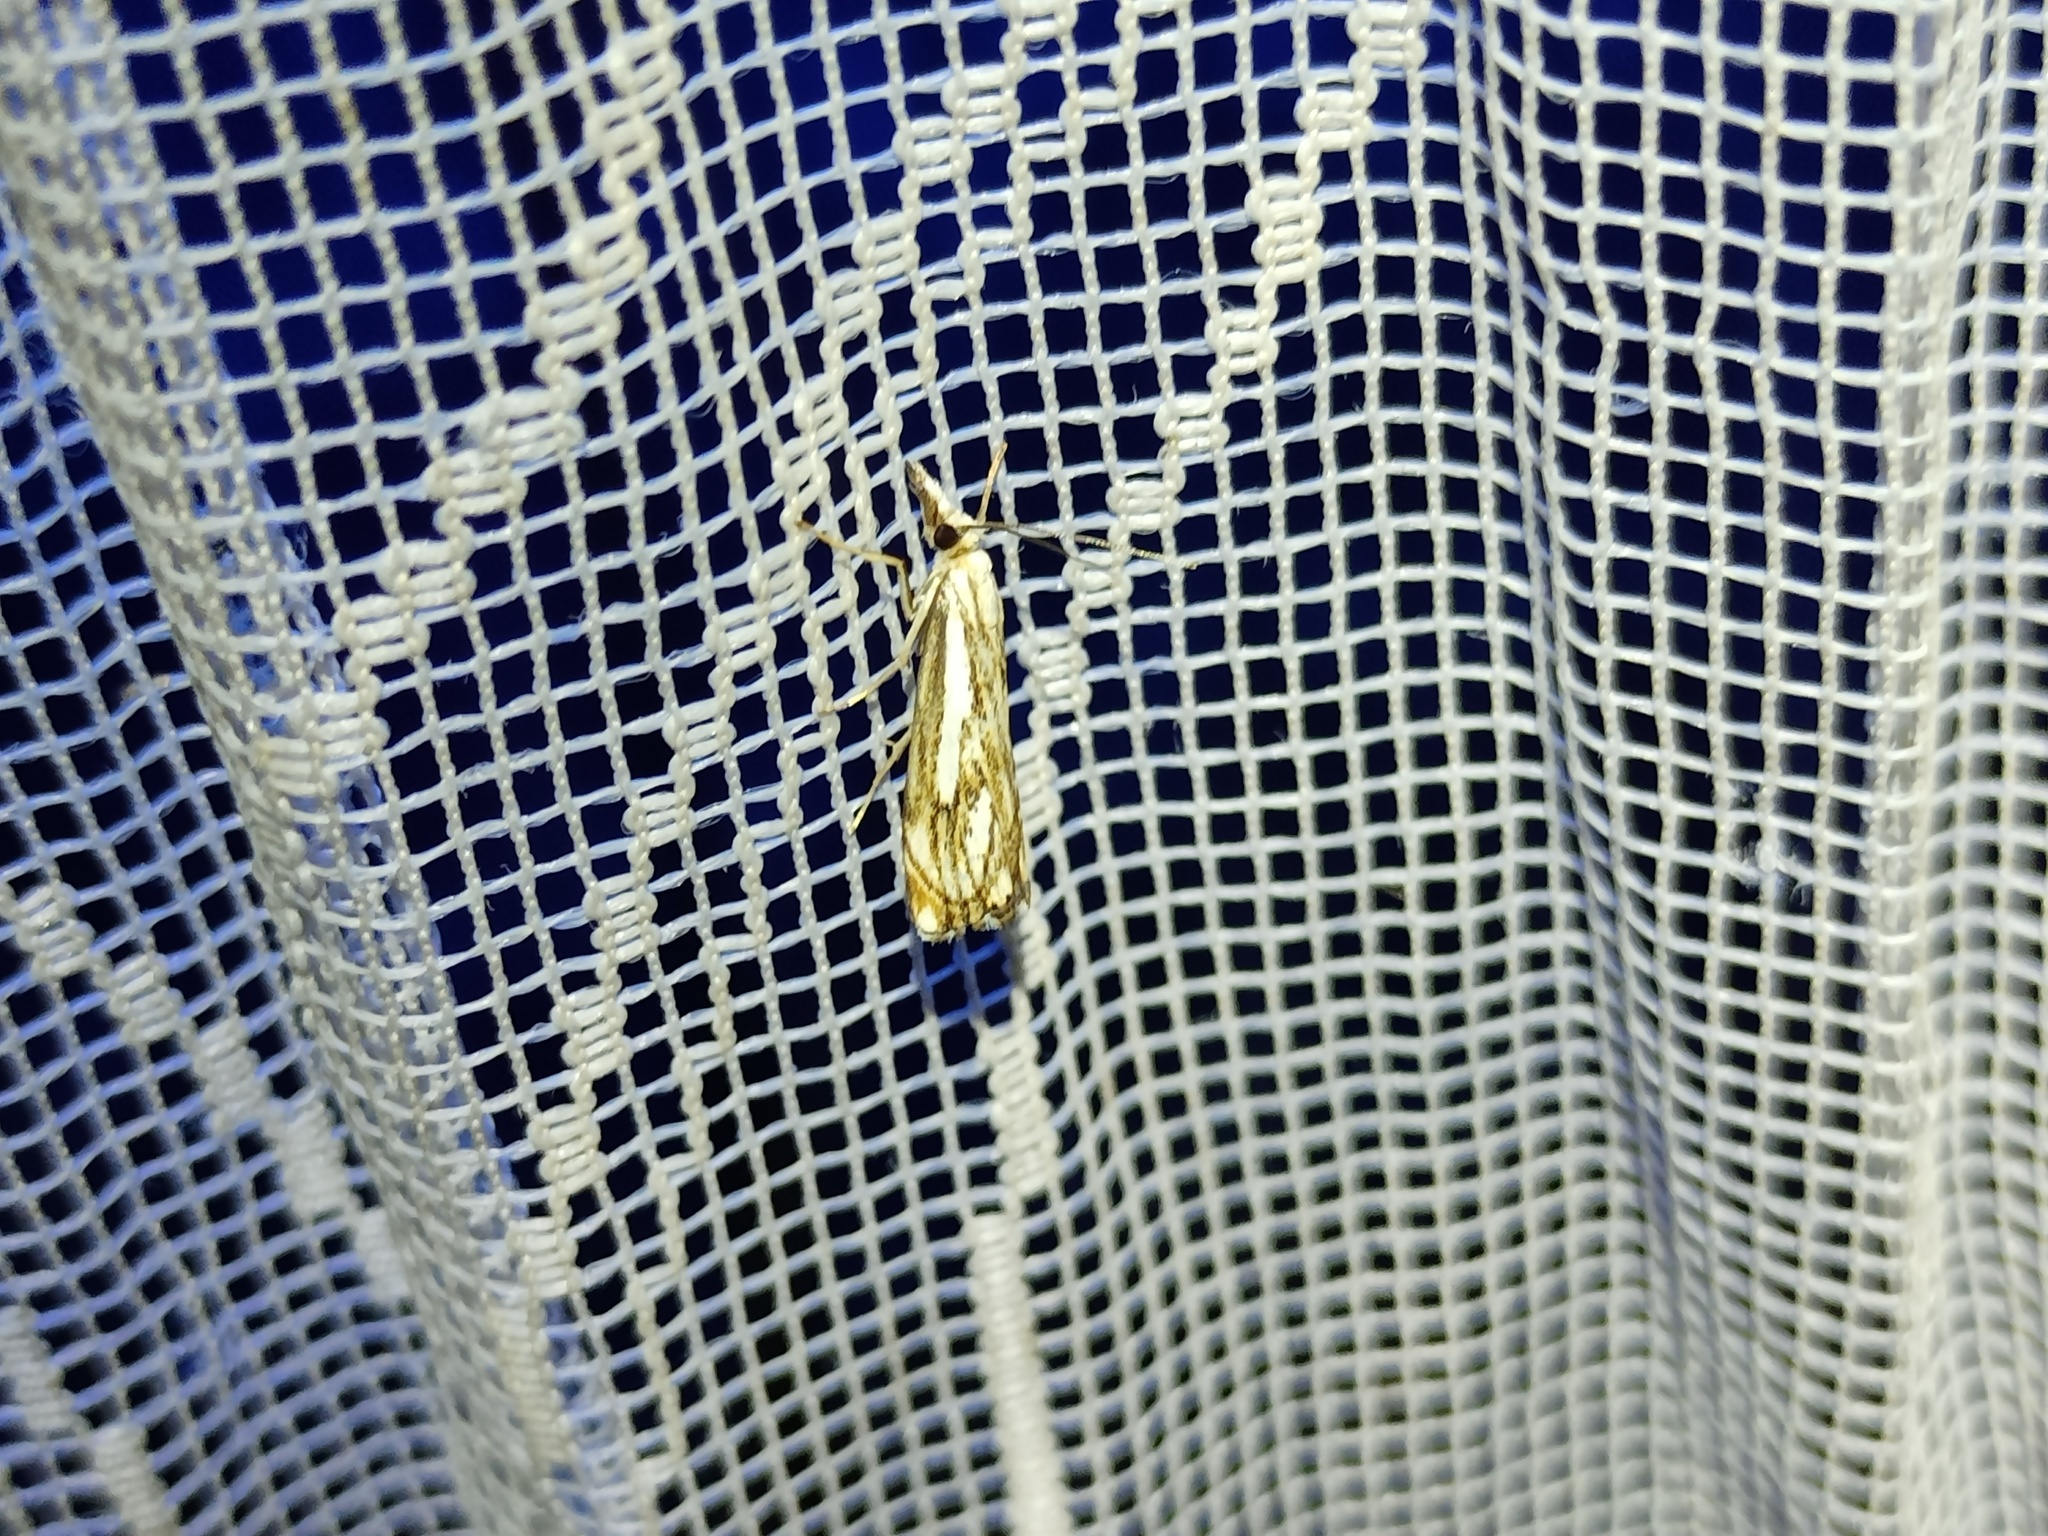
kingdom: Animalia
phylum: Arthropoda
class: Insecta
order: Lepidoptera
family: Crambidae
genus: Catoptria
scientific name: Catoptria falsella
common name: Chequered grass-veneer
